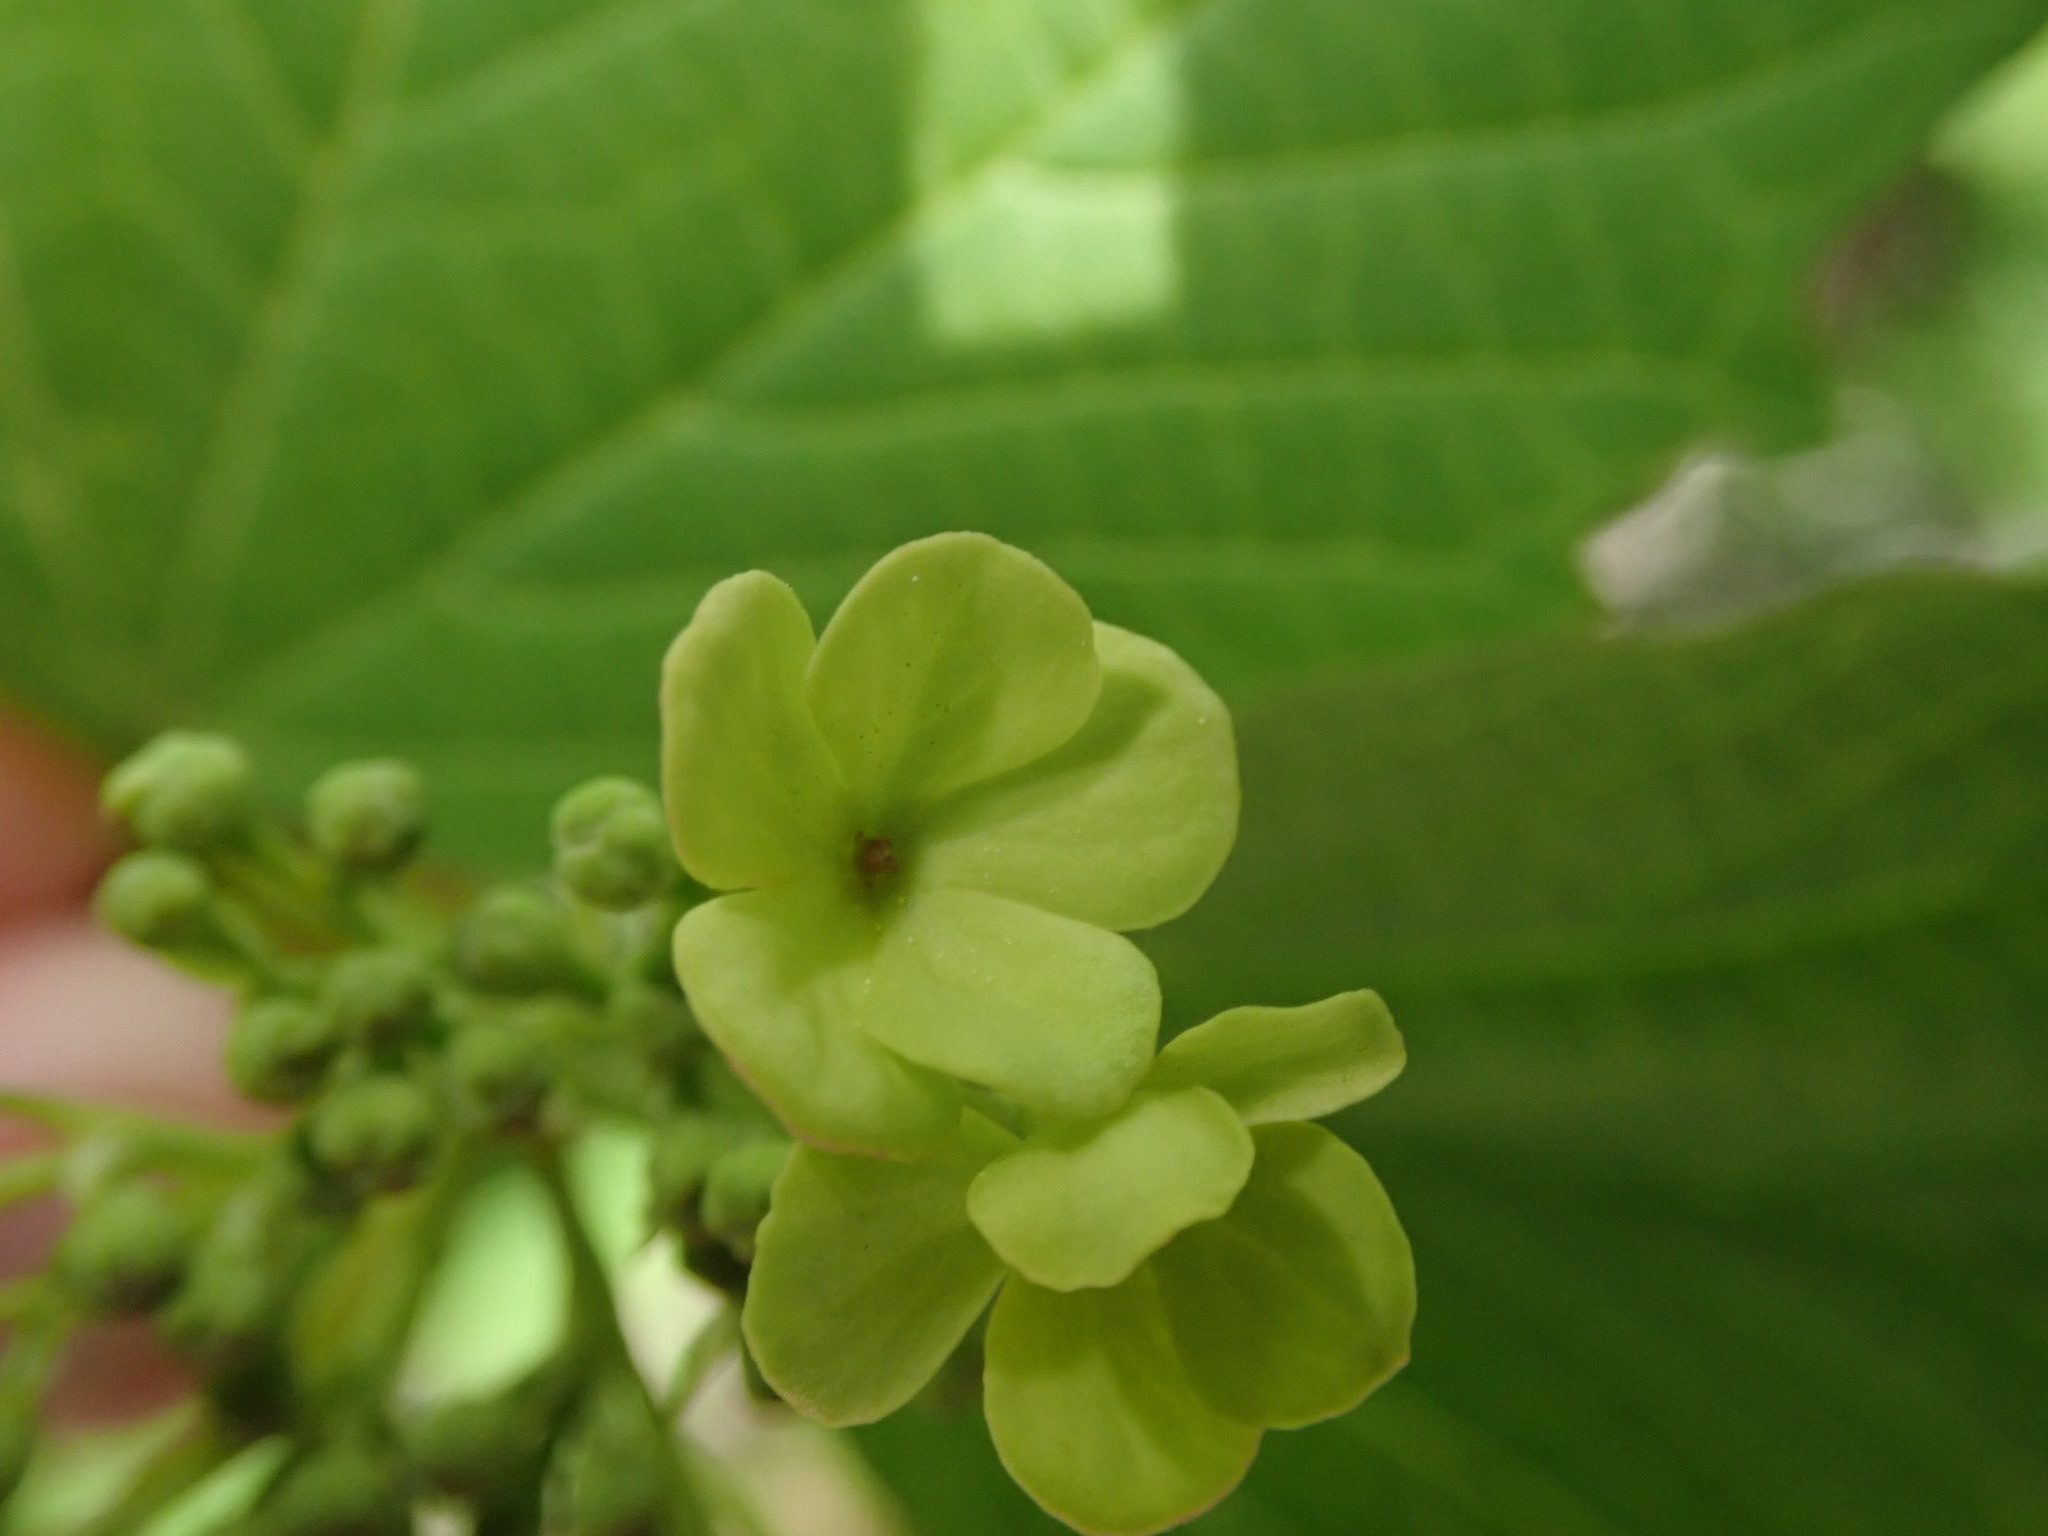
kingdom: Plantae
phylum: Tracheophyta
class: Magnoliopsida
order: Dipsacales
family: Viburnaceae
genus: Viburnum
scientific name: Viburnum opulus
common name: Guelder-rose
